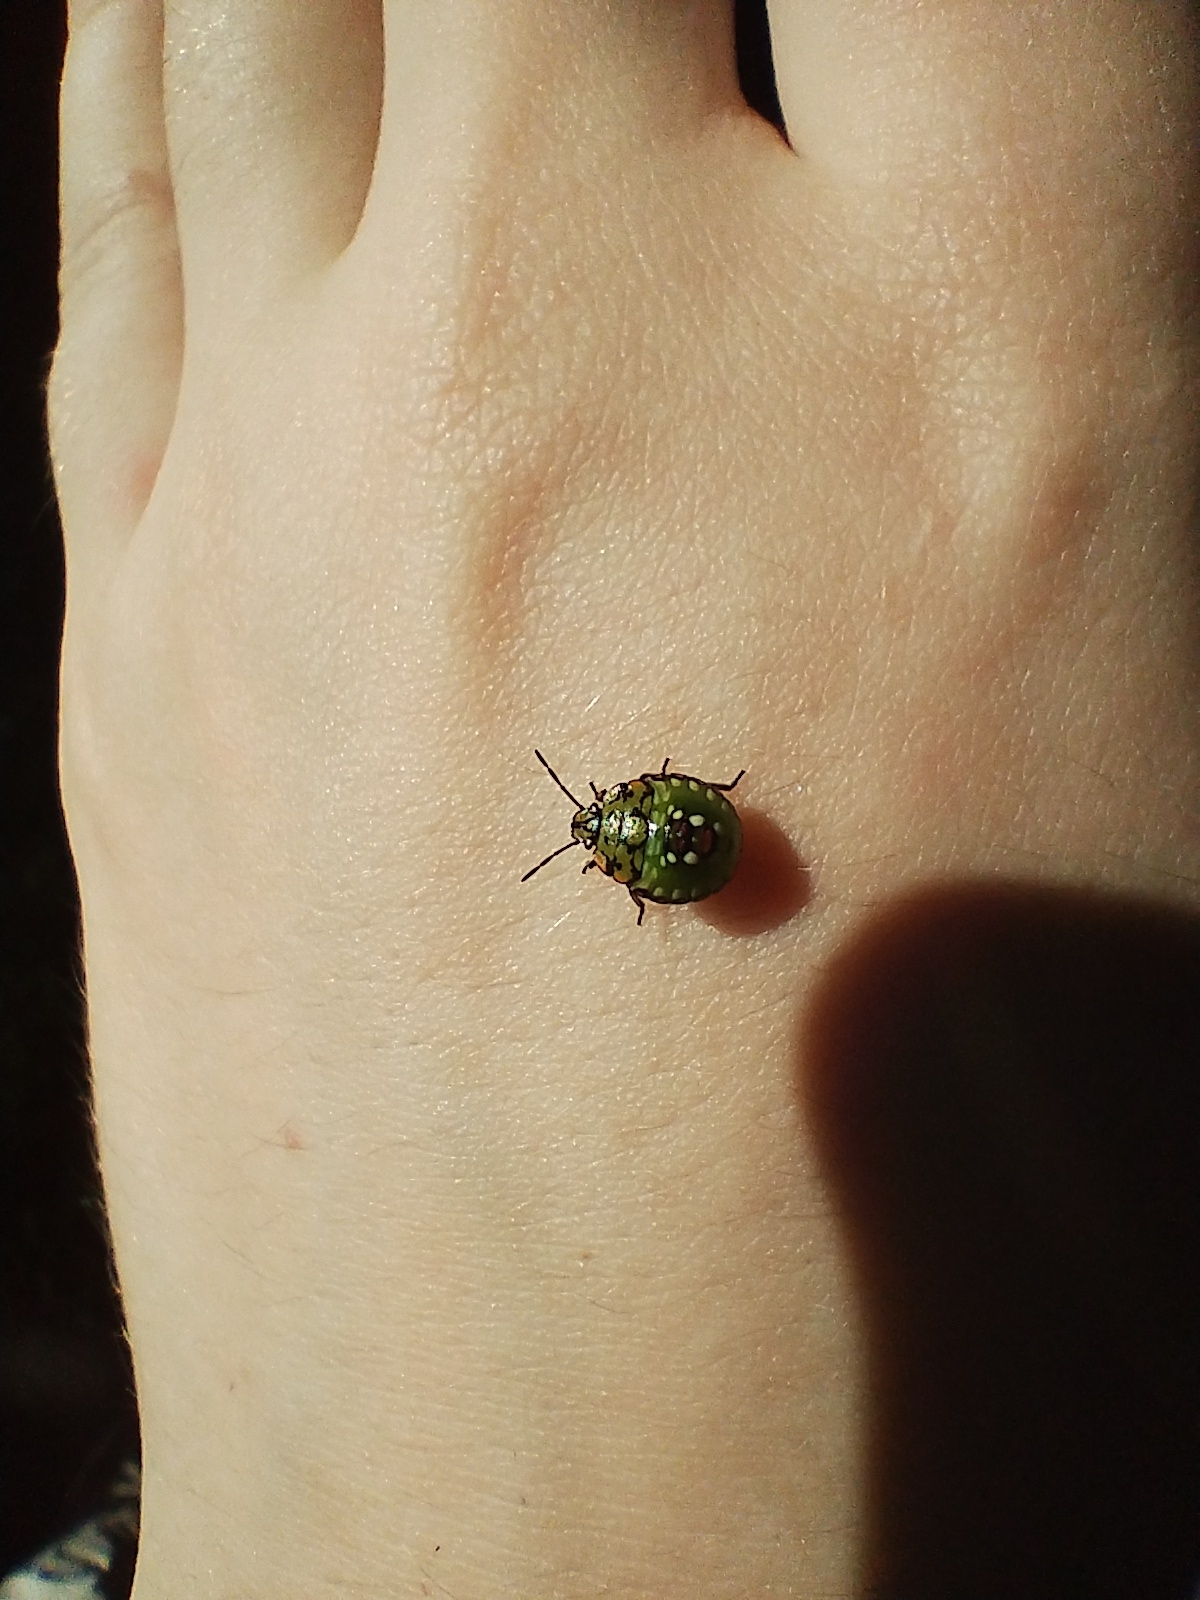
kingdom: Animalia
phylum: Arthropoda
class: Insecta
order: Hemiptera
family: Pentatomidae
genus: Nezara
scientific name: Nezara viridula
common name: Southern green stink bug
